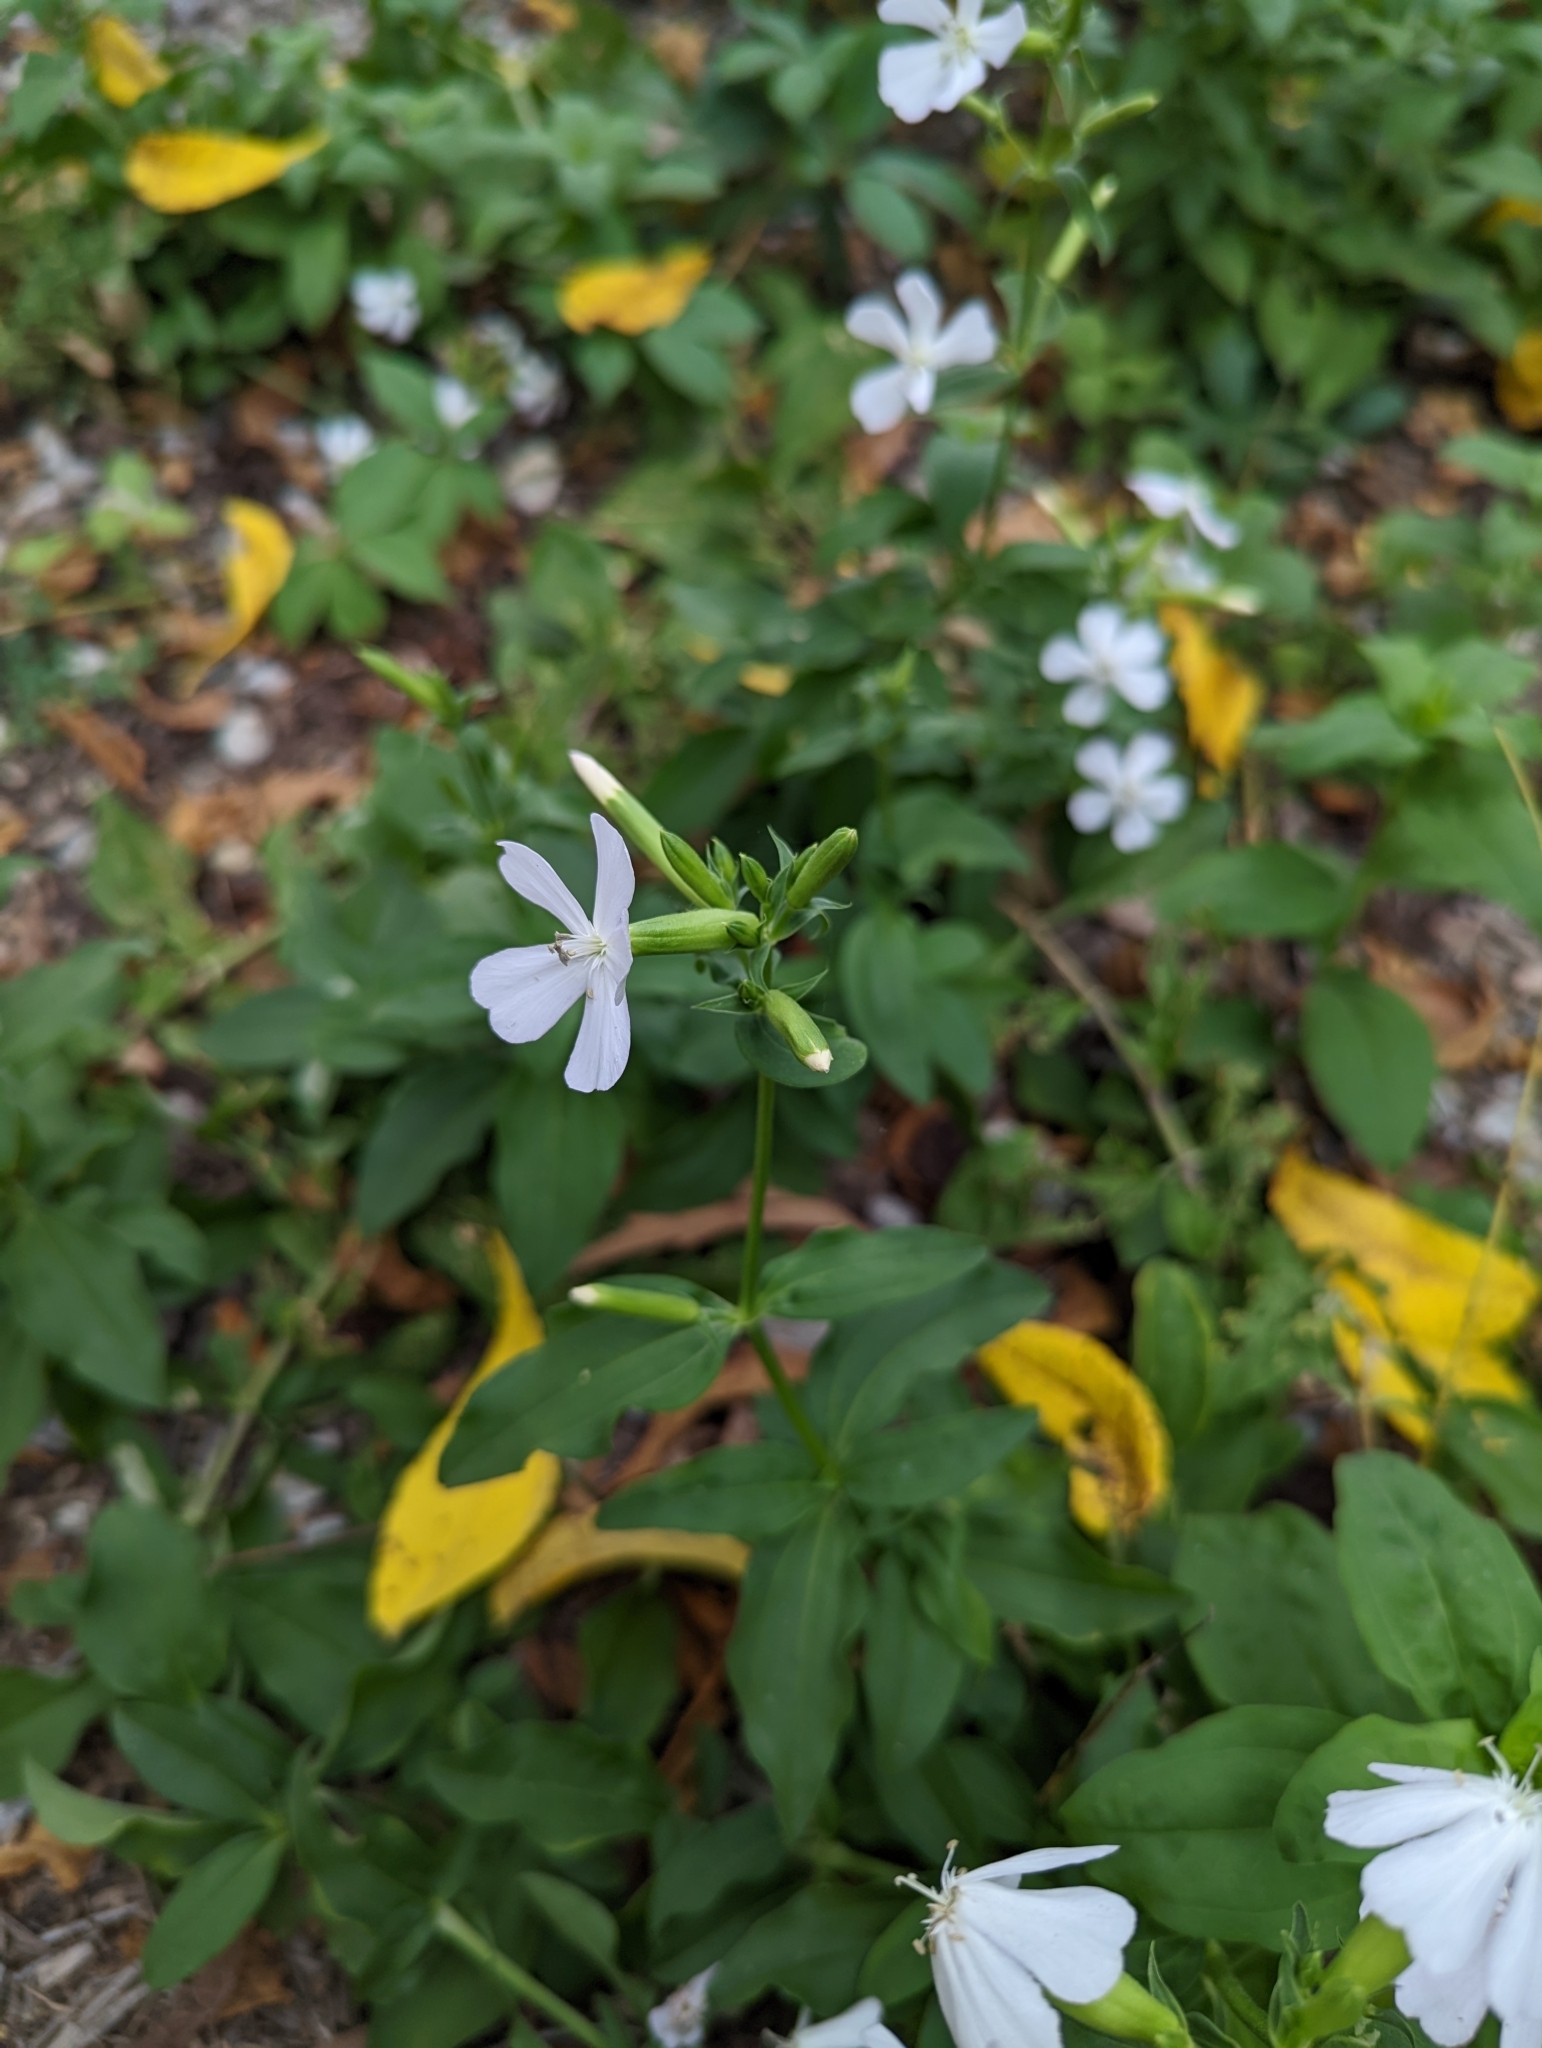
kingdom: Plantae
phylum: Tracheophyta
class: Magnoliopsida
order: Caryophyllales
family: Caryophyllaceae
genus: Saponaria
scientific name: Saponaria officinalis
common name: Soapwort
